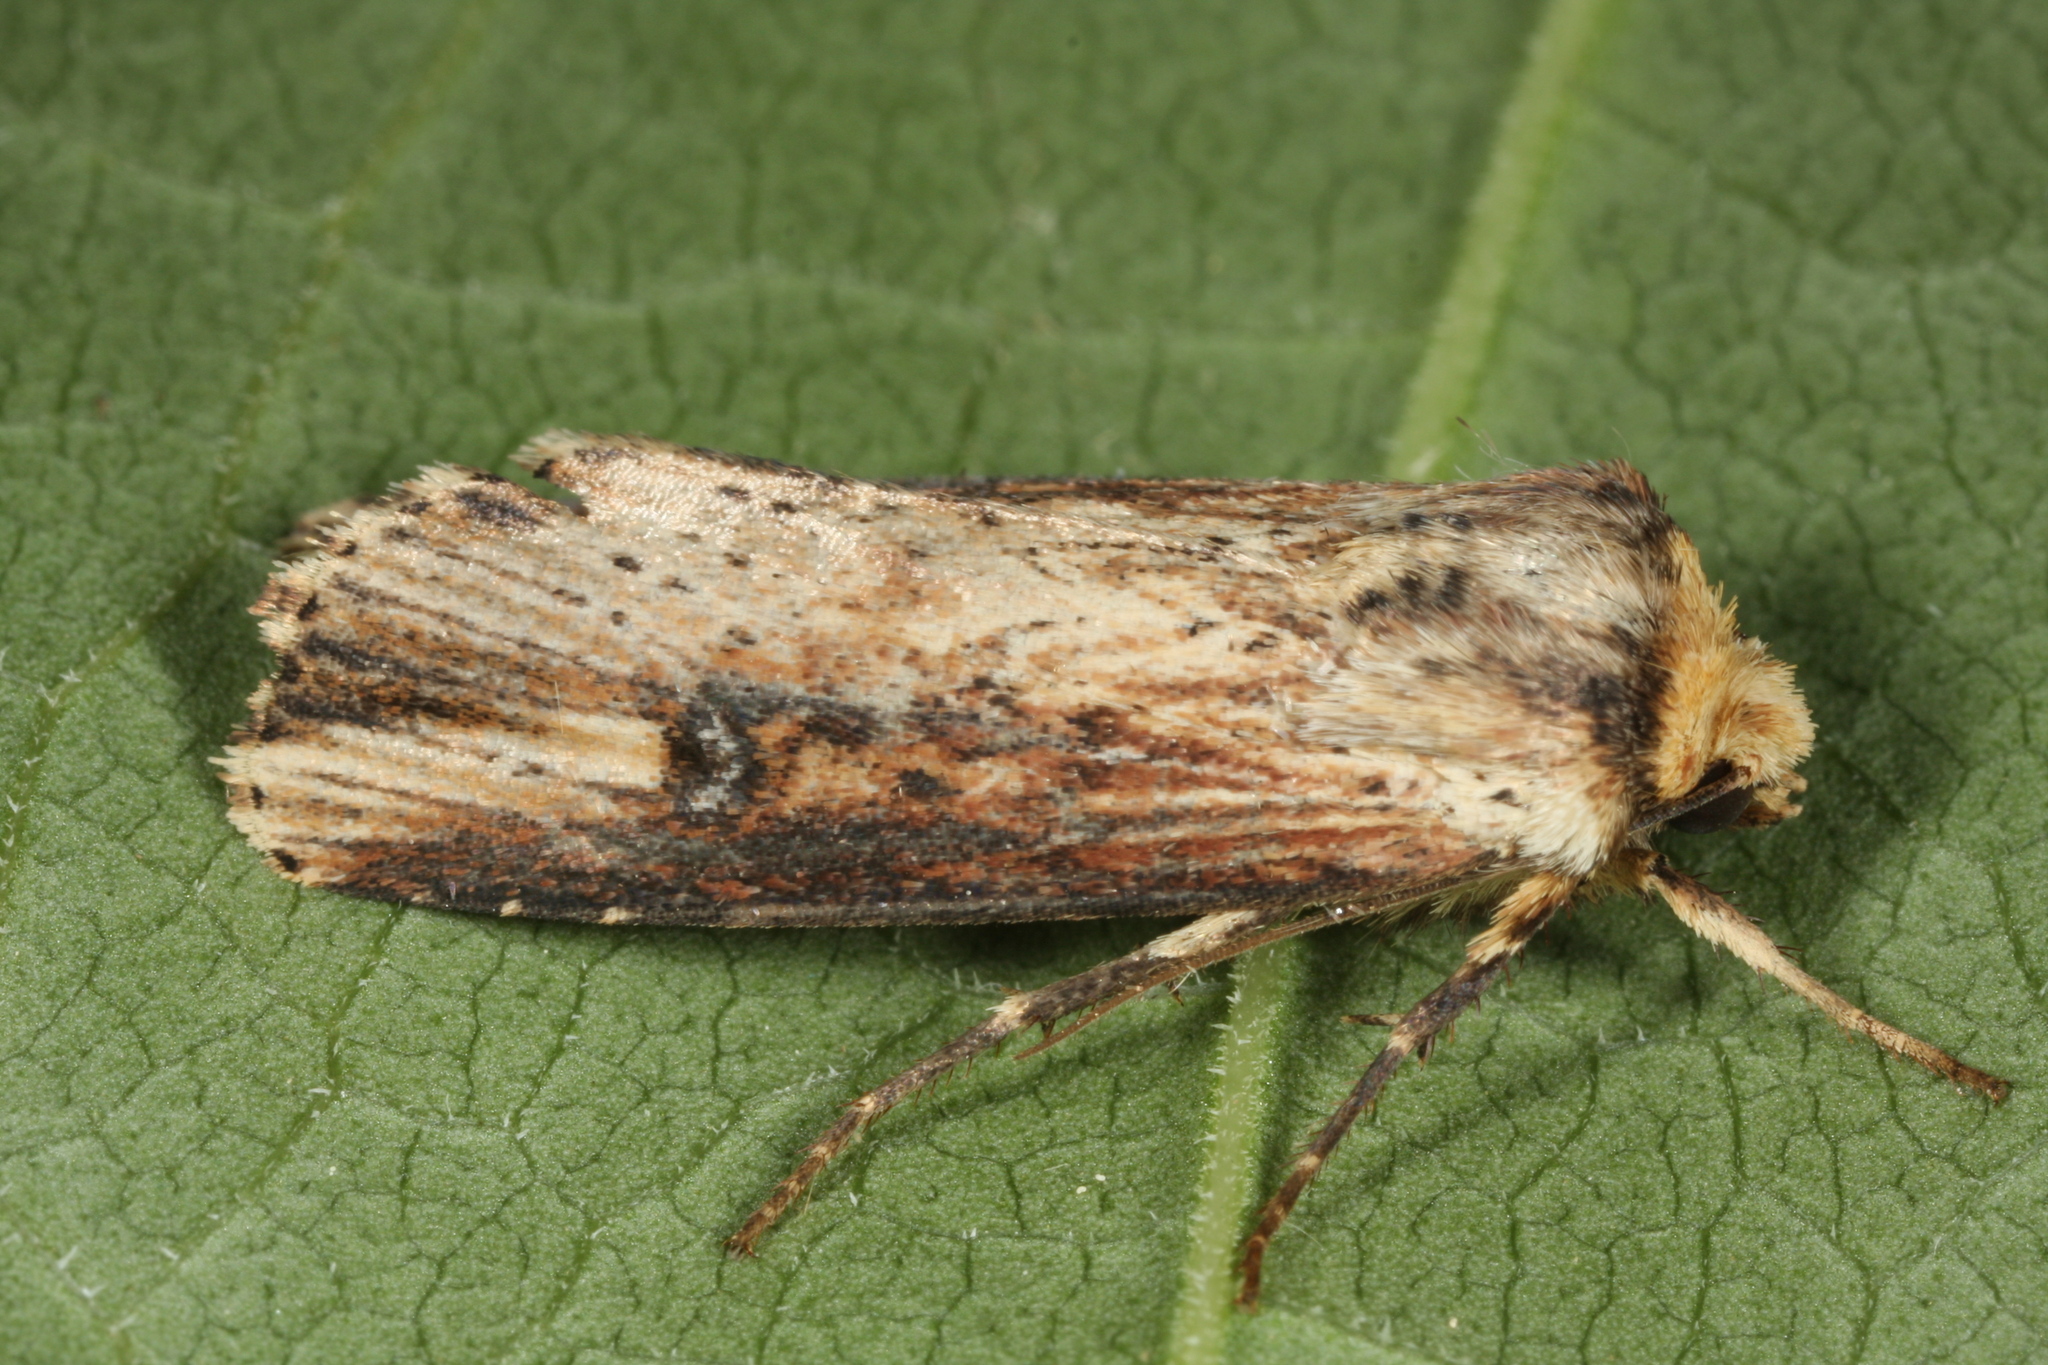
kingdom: Animalia
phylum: Arthropoda
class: Insecta
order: Lepidoptera
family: Noctuidae
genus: Axylia
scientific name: Axylia putris
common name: Flame
